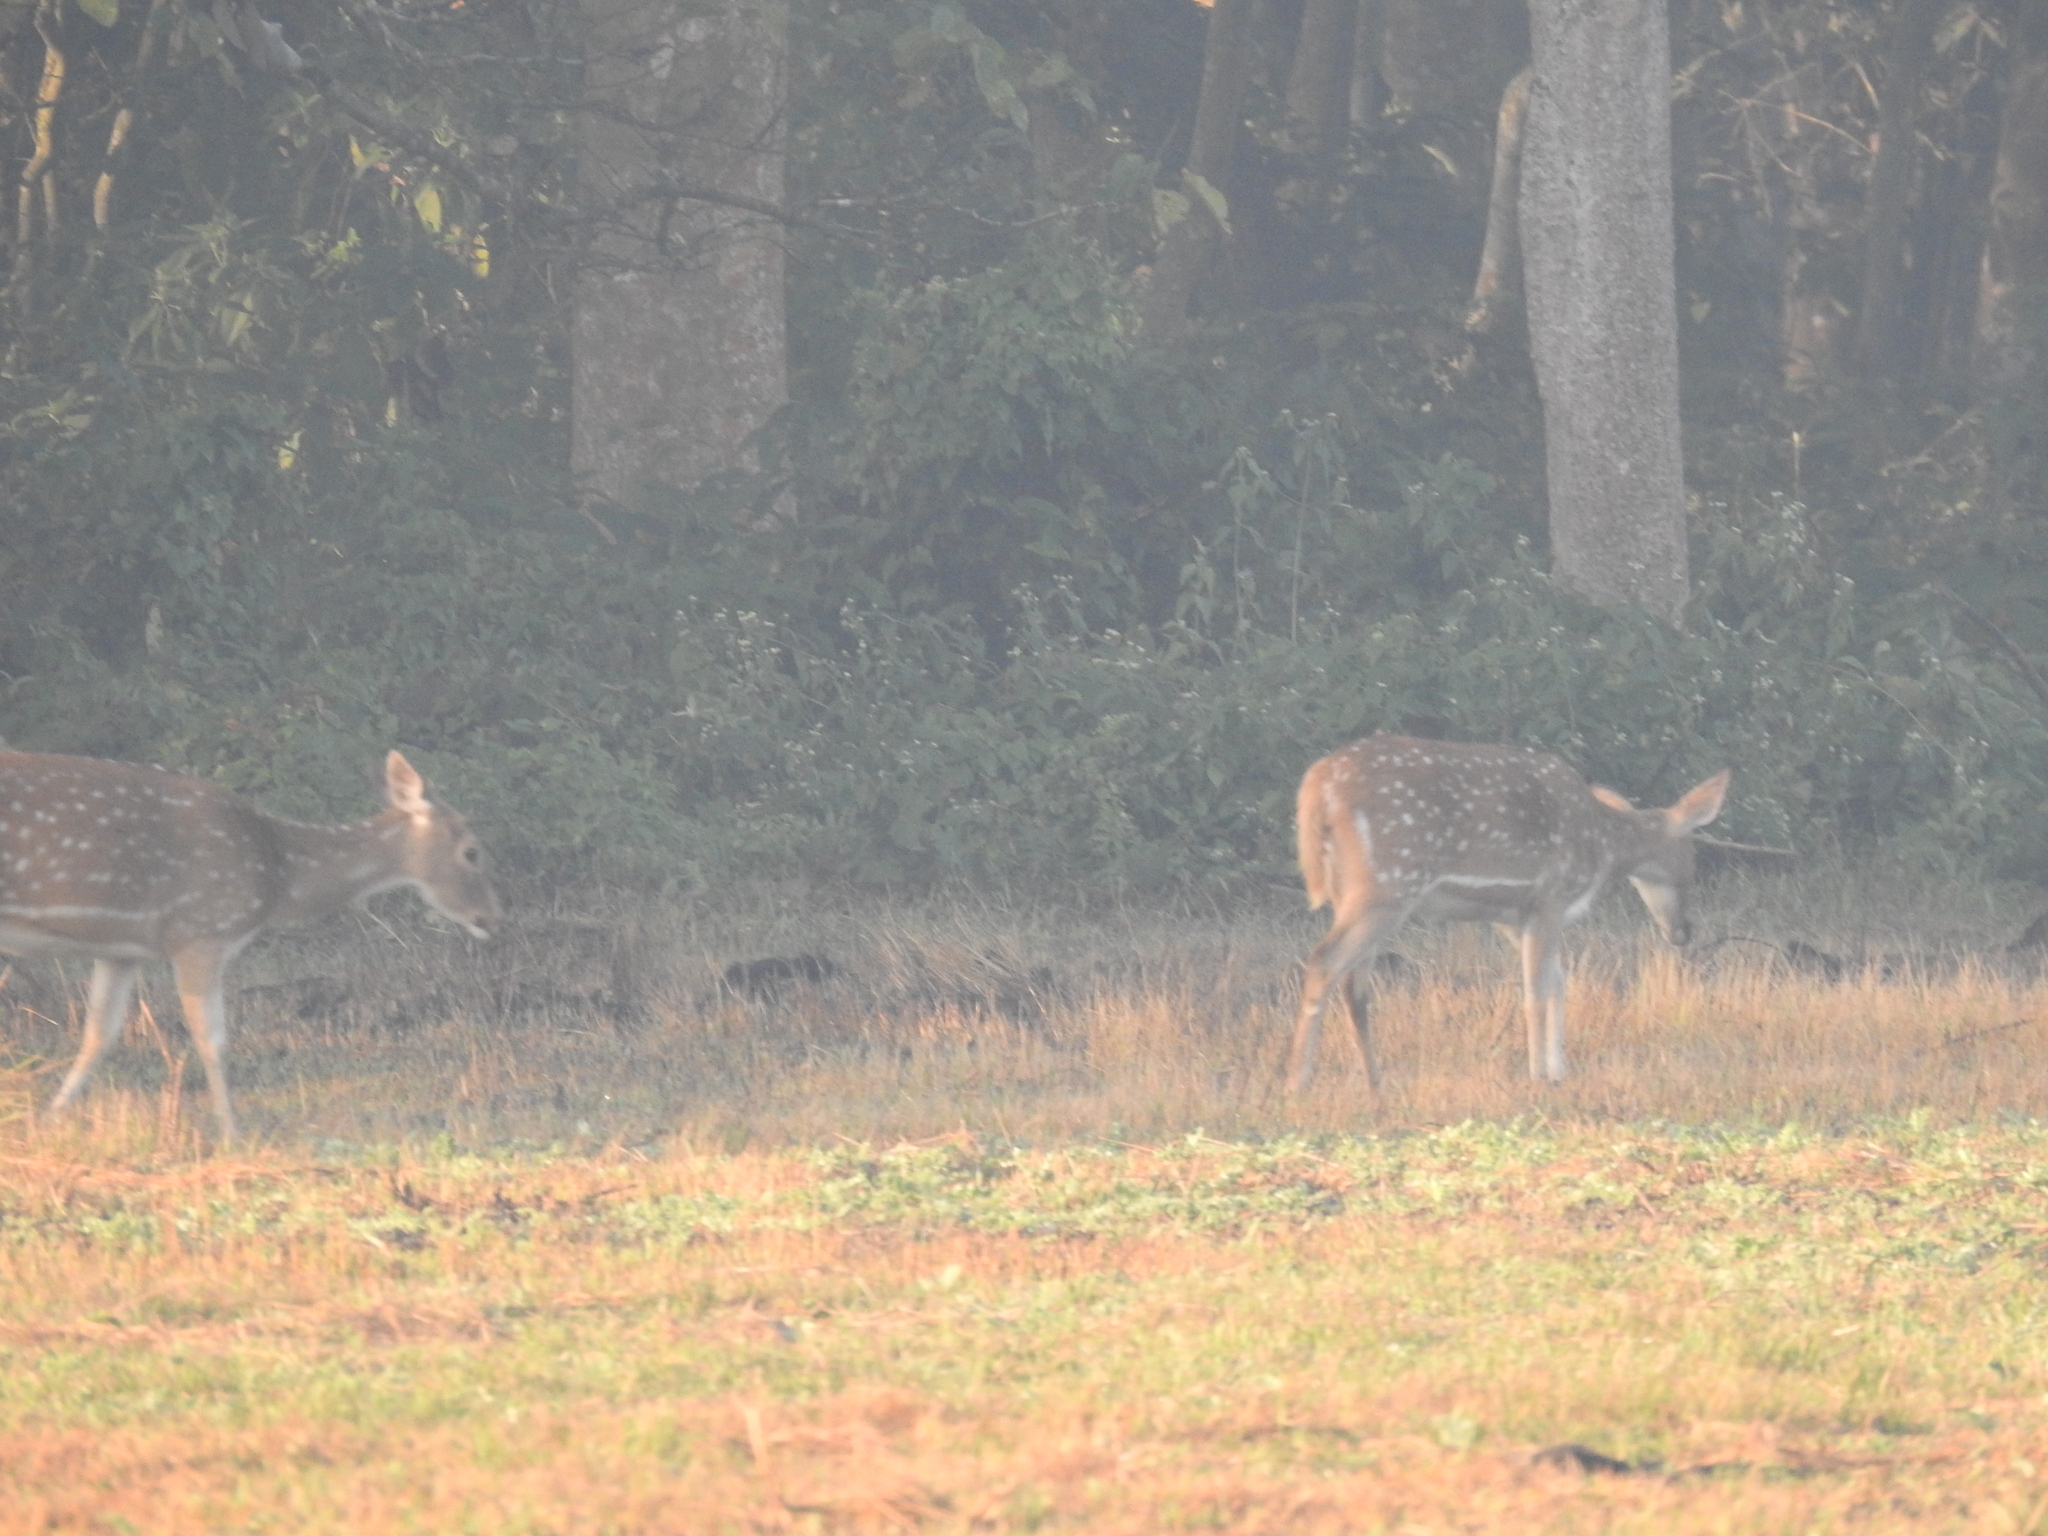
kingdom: Animalia
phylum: Chordata
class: Mammalia
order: Artiodactyla
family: Cervidae
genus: Axis
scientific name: Axis axis
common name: Chital
